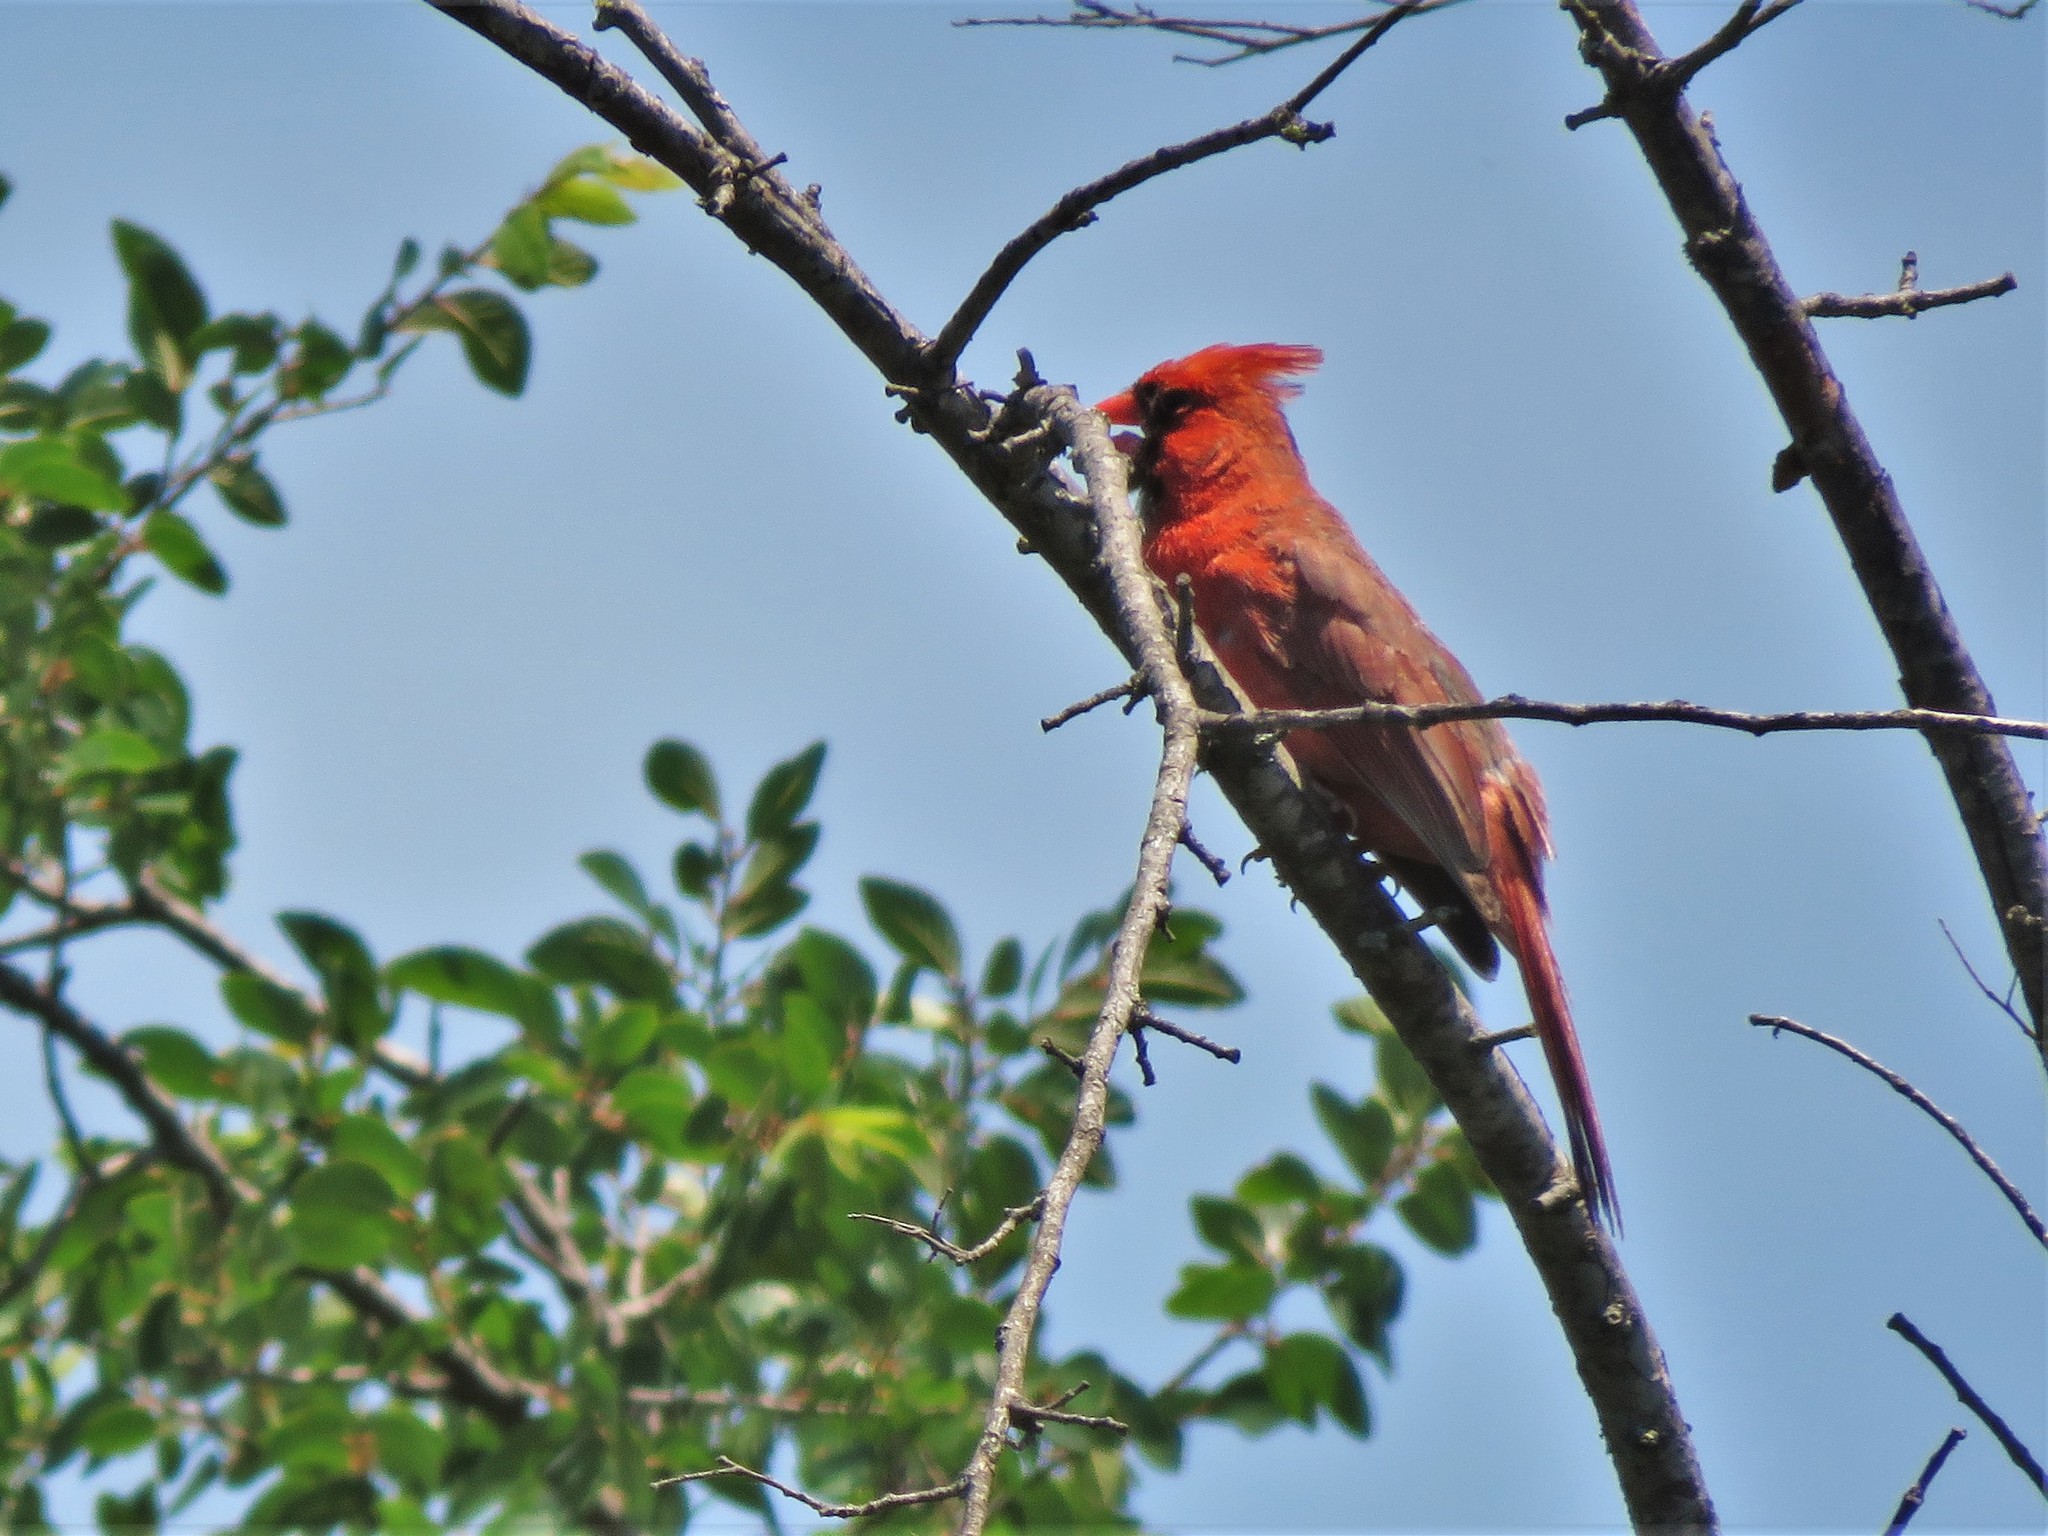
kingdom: Animalia
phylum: Chordata
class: Aves
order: Passeriformes
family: Cardinalidae
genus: Cardinalis
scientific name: Cardinalis cardinalis
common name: Northern cardinal
